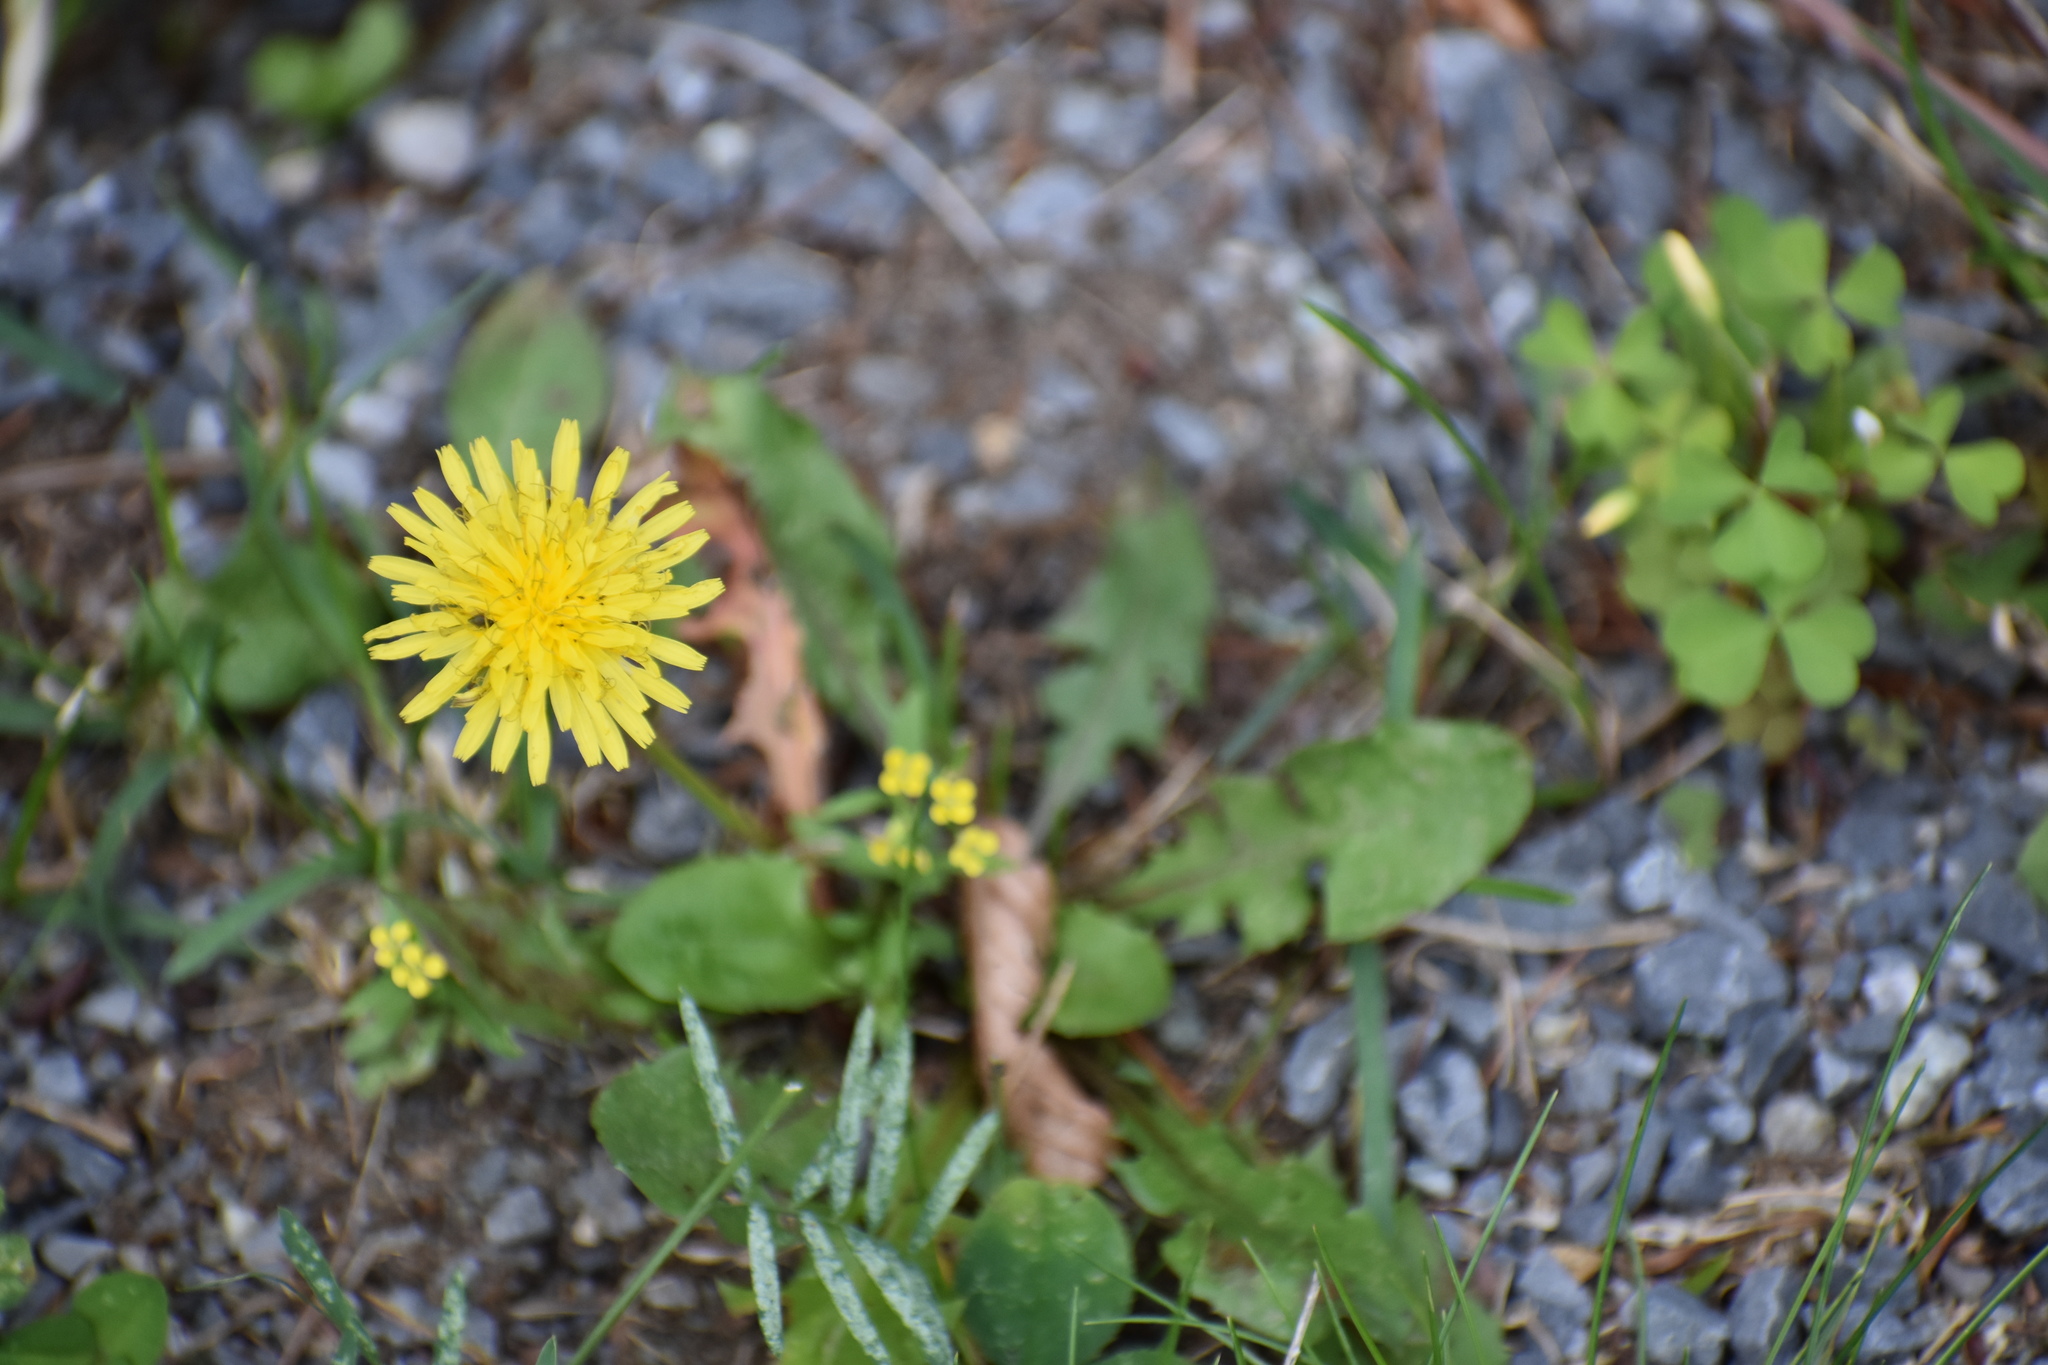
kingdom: Plantae
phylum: Tracheophyta
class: Magnoliopsida
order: Asterales
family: Asteraceae
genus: Taraxacum
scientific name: Taraxacum officinale
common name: Common dandelion
